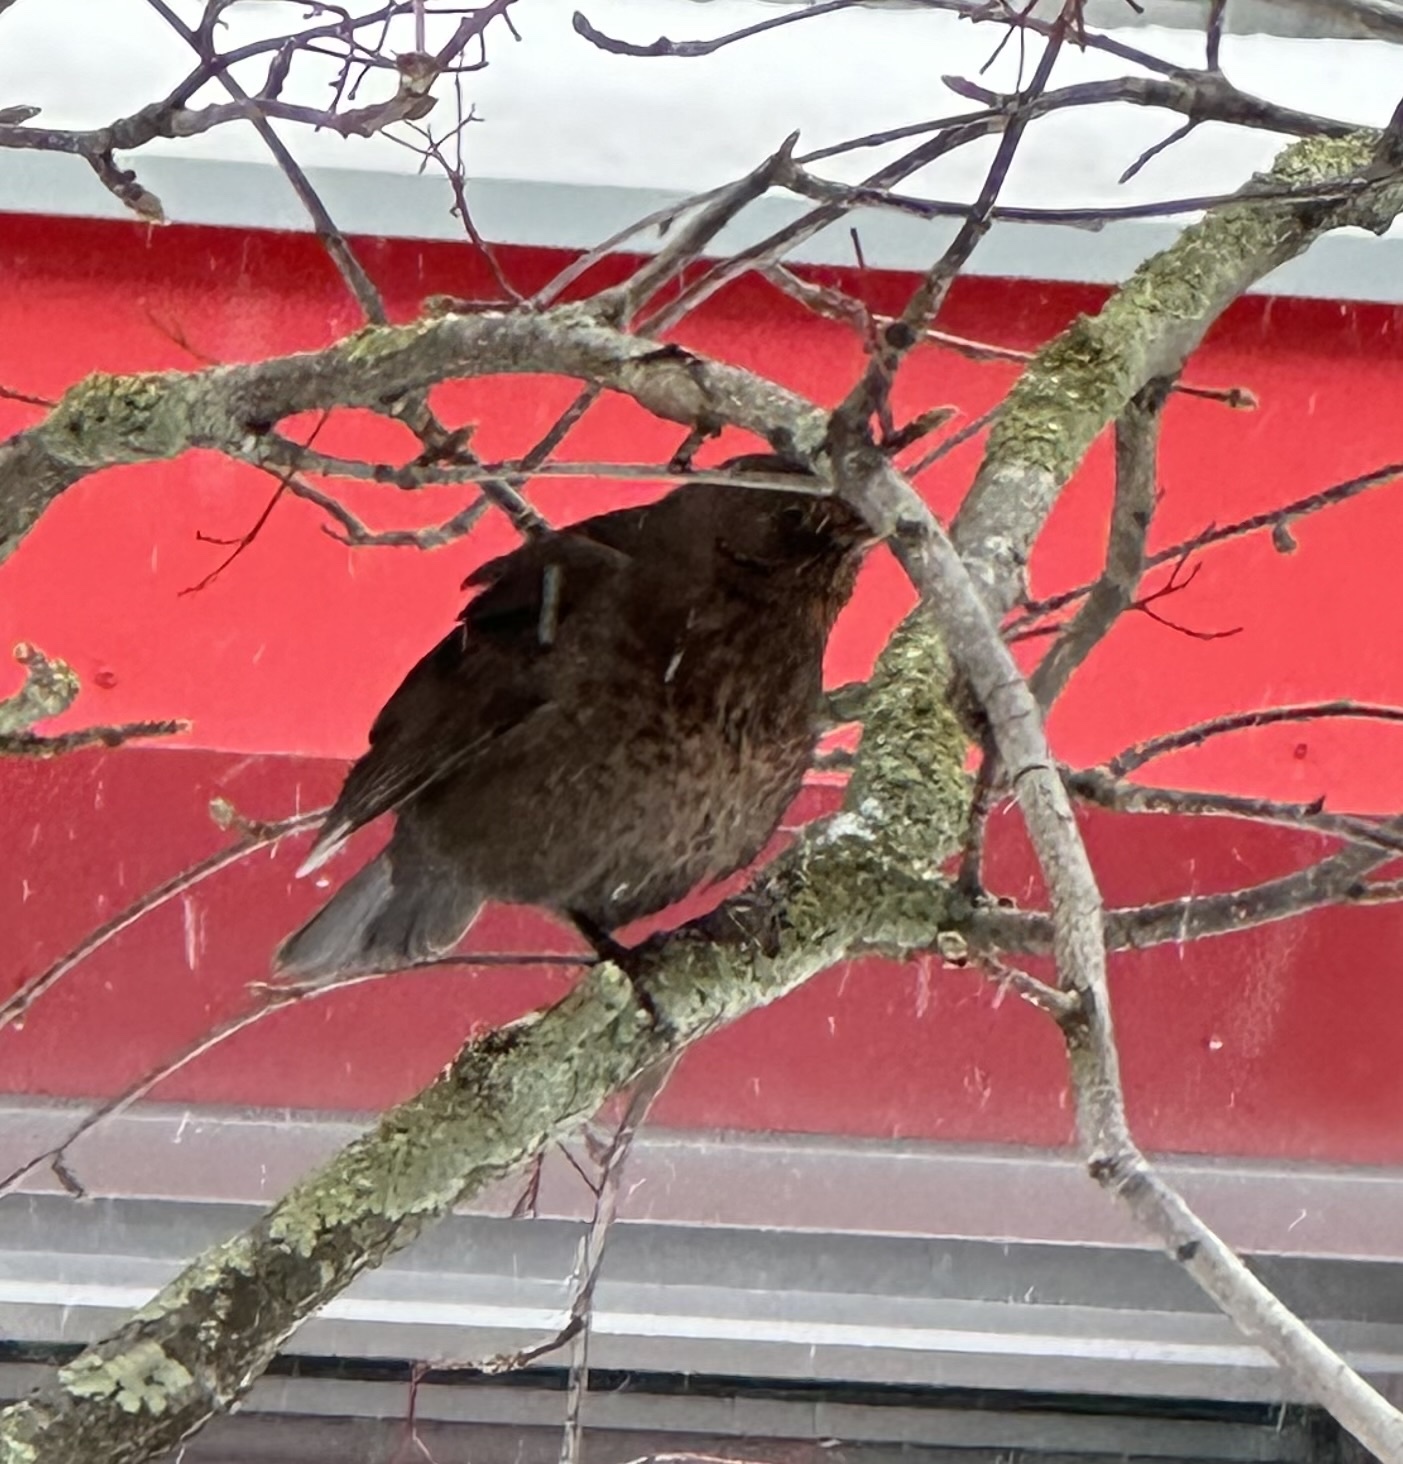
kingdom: Animalia
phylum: Chordata
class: Aves
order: Passeriformes
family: Turdidae
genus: Turdus
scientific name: Turdus merula
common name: Common blackbird
